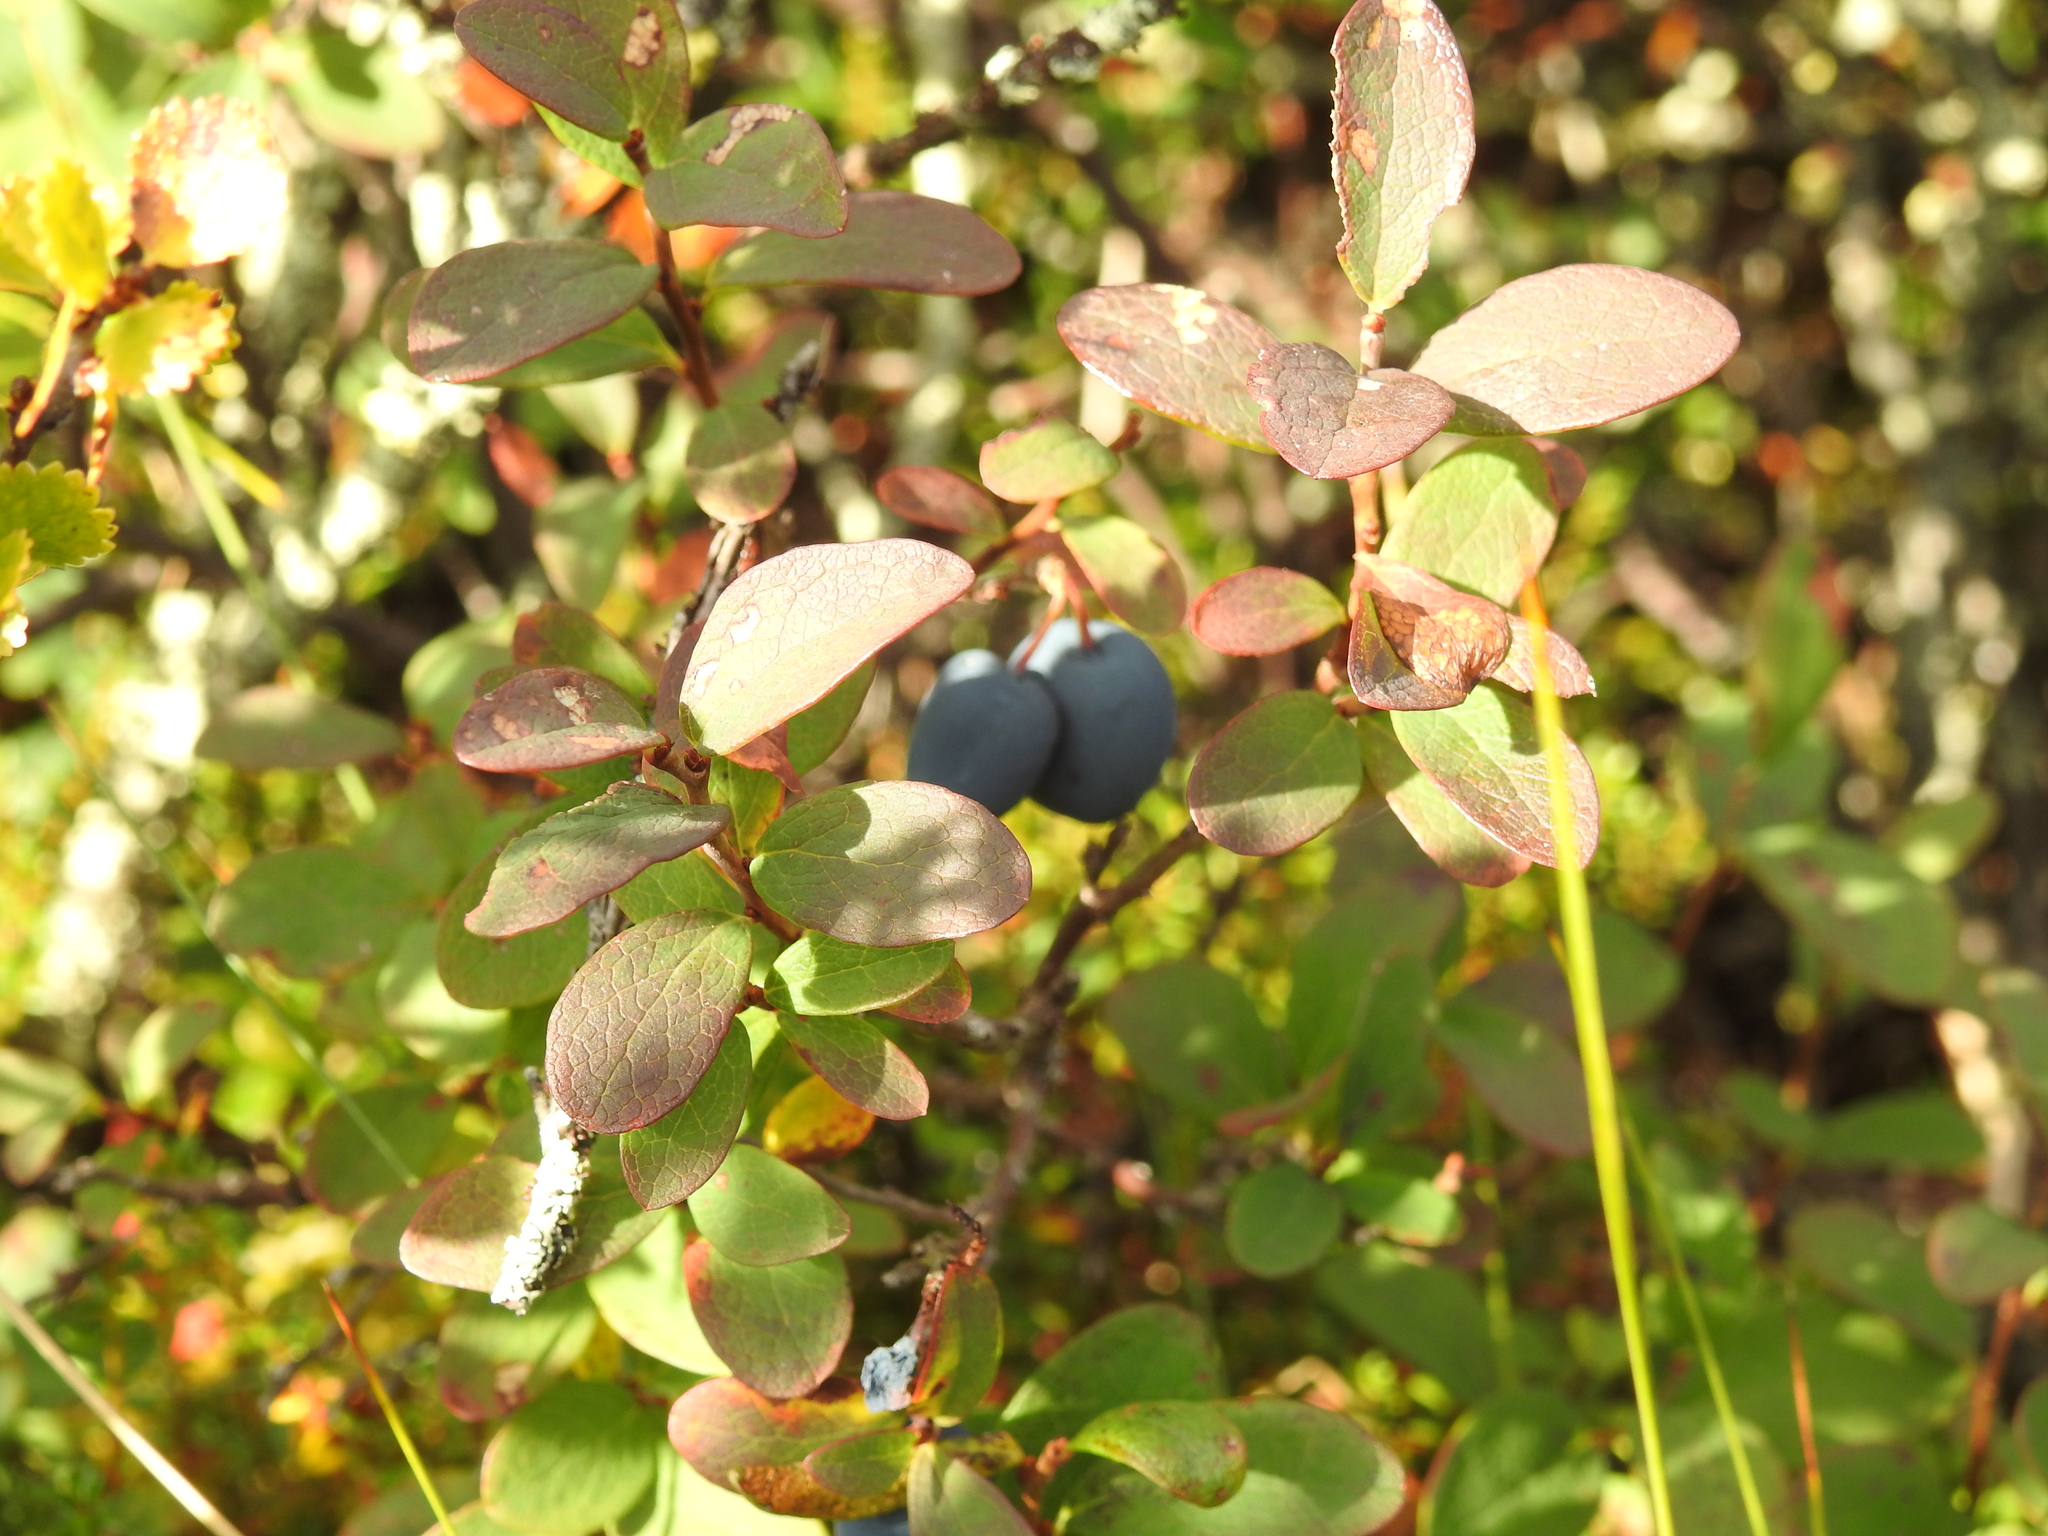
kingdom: Plantae
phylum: Tracheophyta
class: Magnoliopsida
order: Ericales
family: Ericaceae
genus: Vaccinium
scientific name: Vaccinium uliginosum
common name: Bog bilberry
